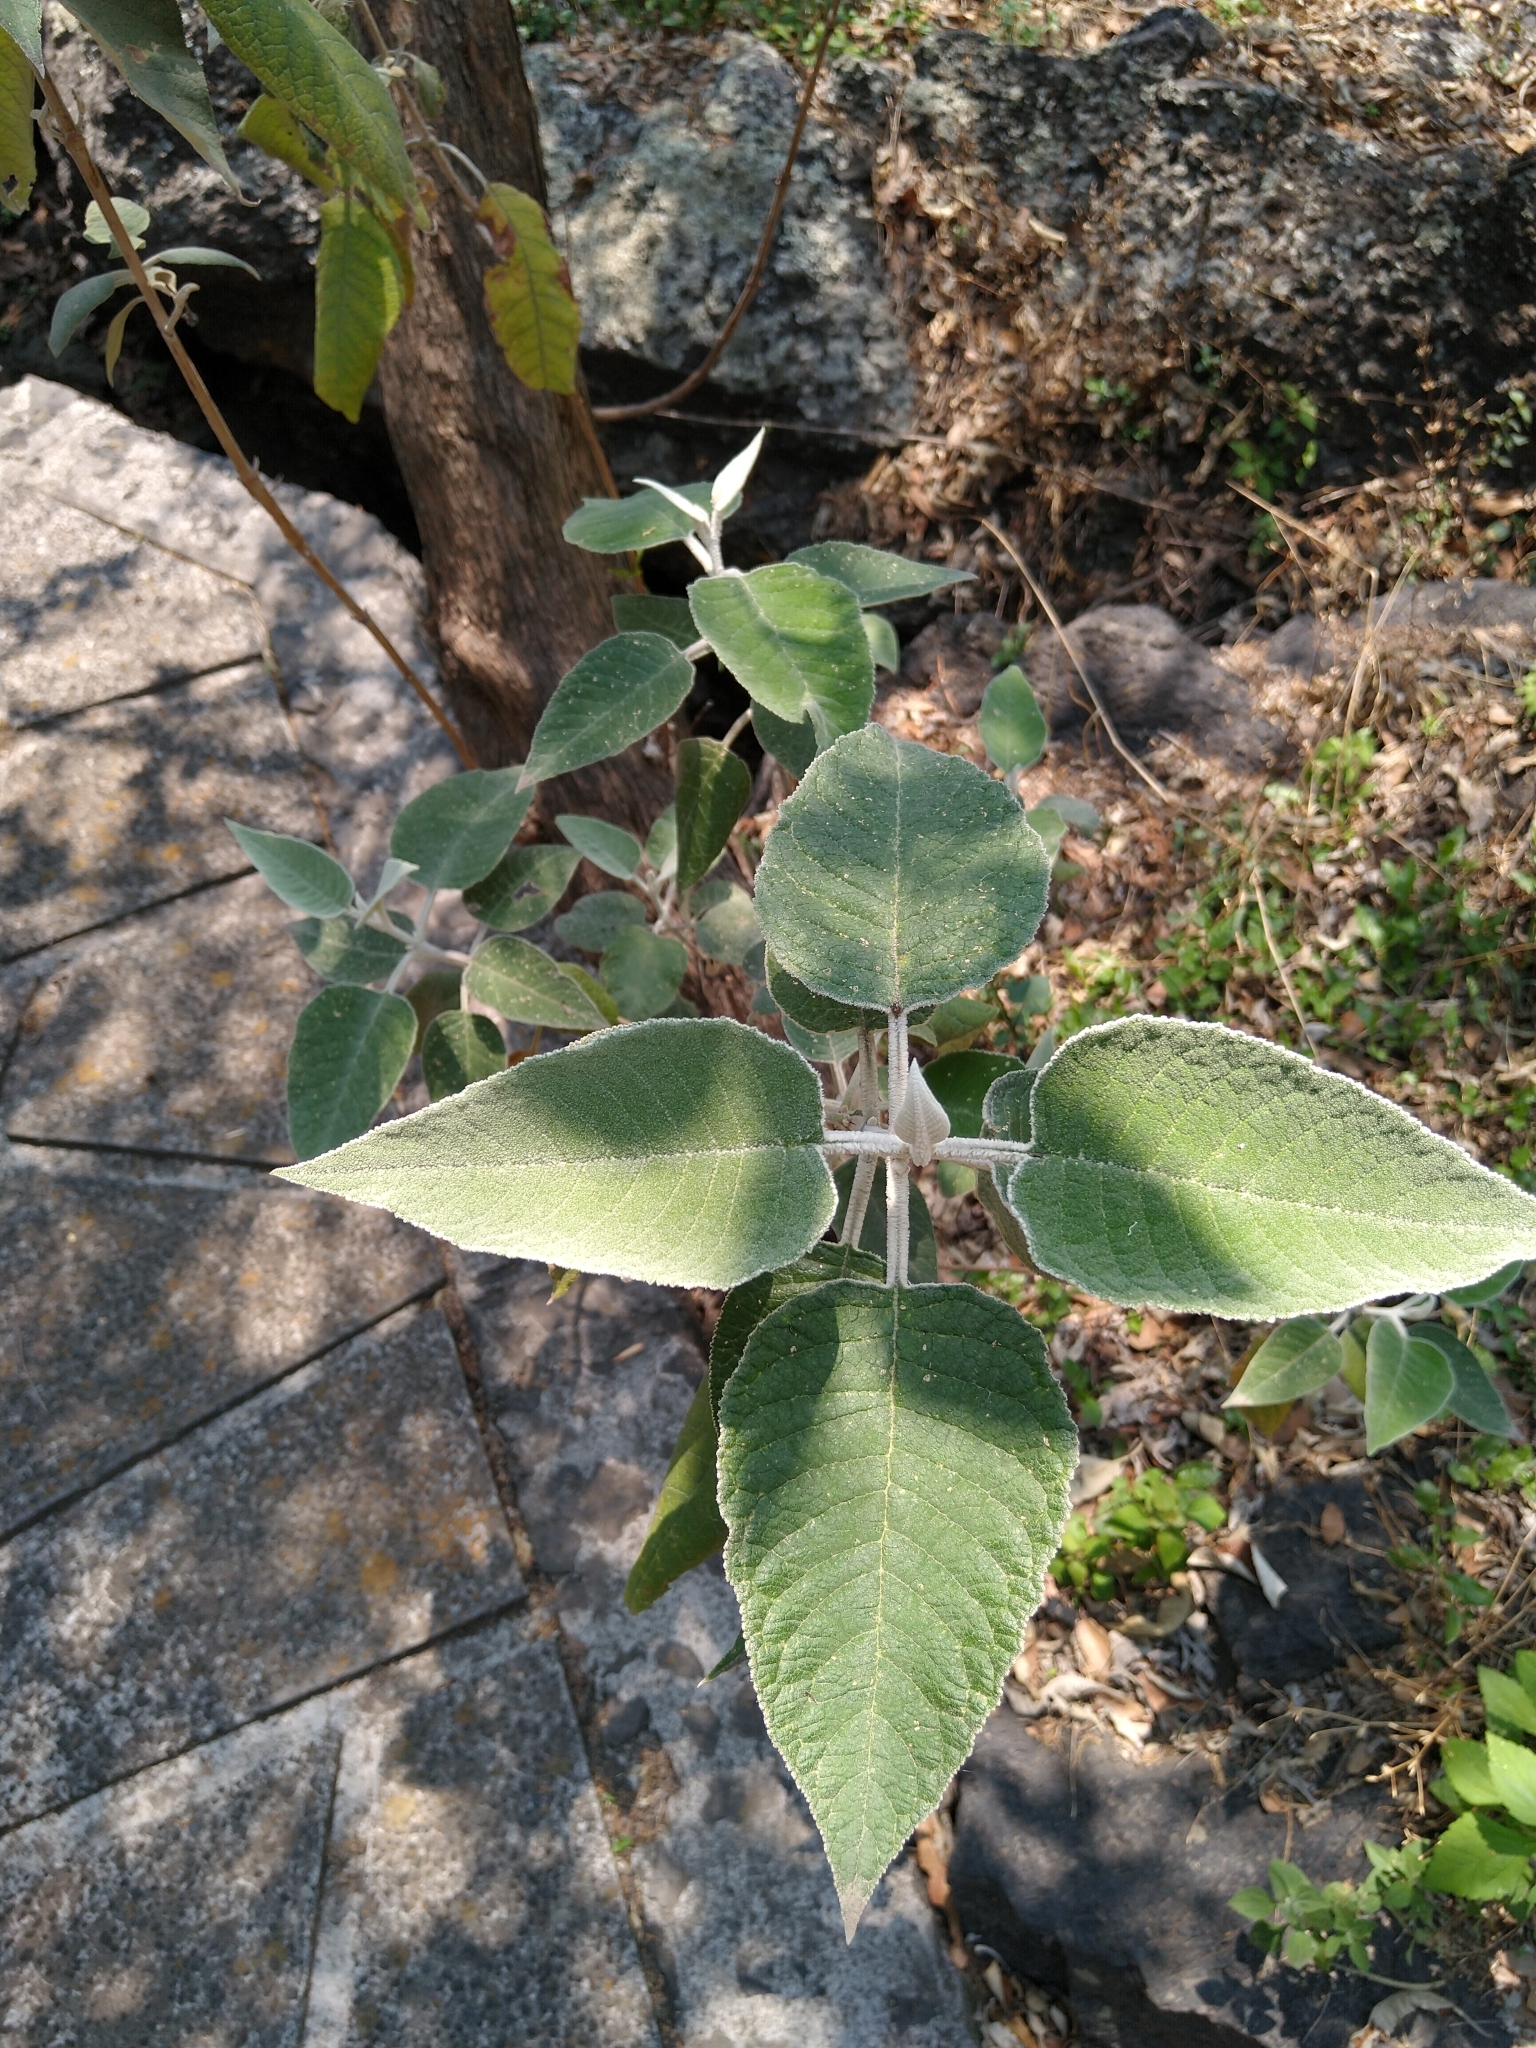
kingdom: Plantae
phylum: Tracheophyta
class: Magnoliopsida
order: Lamiales
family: Scrophulariaceae
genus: Buddleja
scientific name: Buddleja cordata
